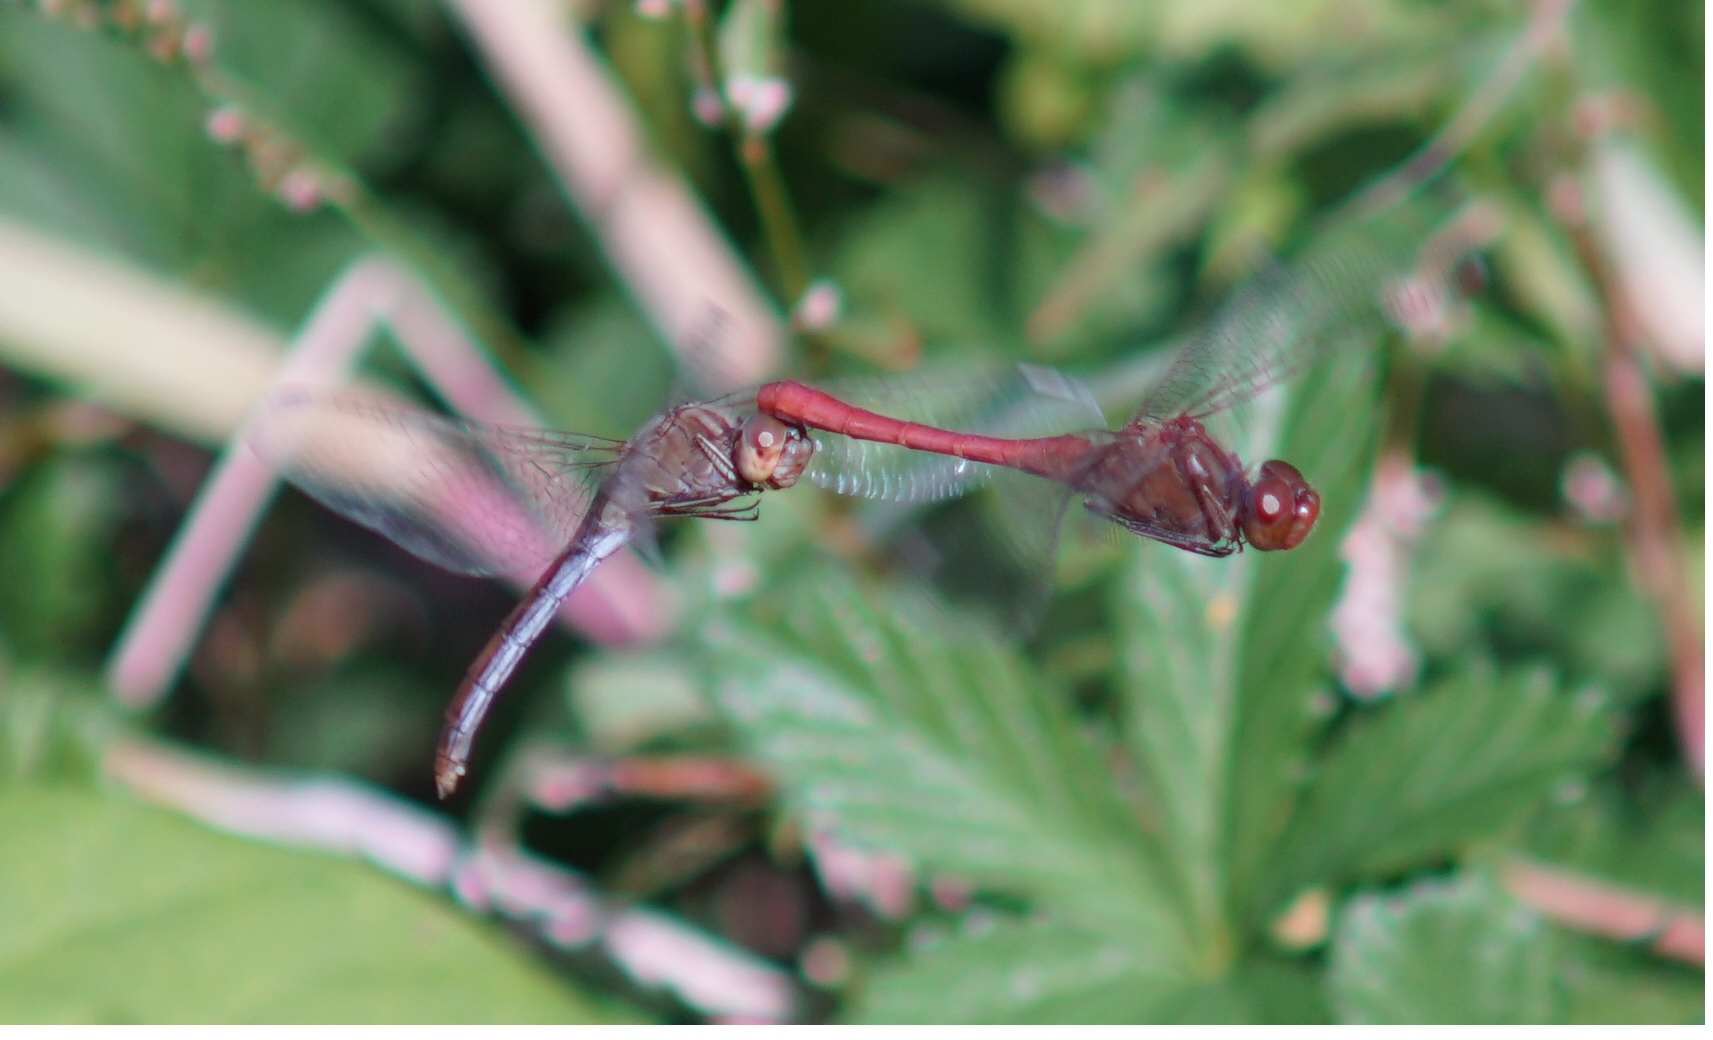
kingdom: Animalia
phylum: Arthropoda
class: Insecta
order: Odonata
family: Libellulidae
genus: Sympetrum
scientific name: Sympetrum meridionale
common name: Southern darter
